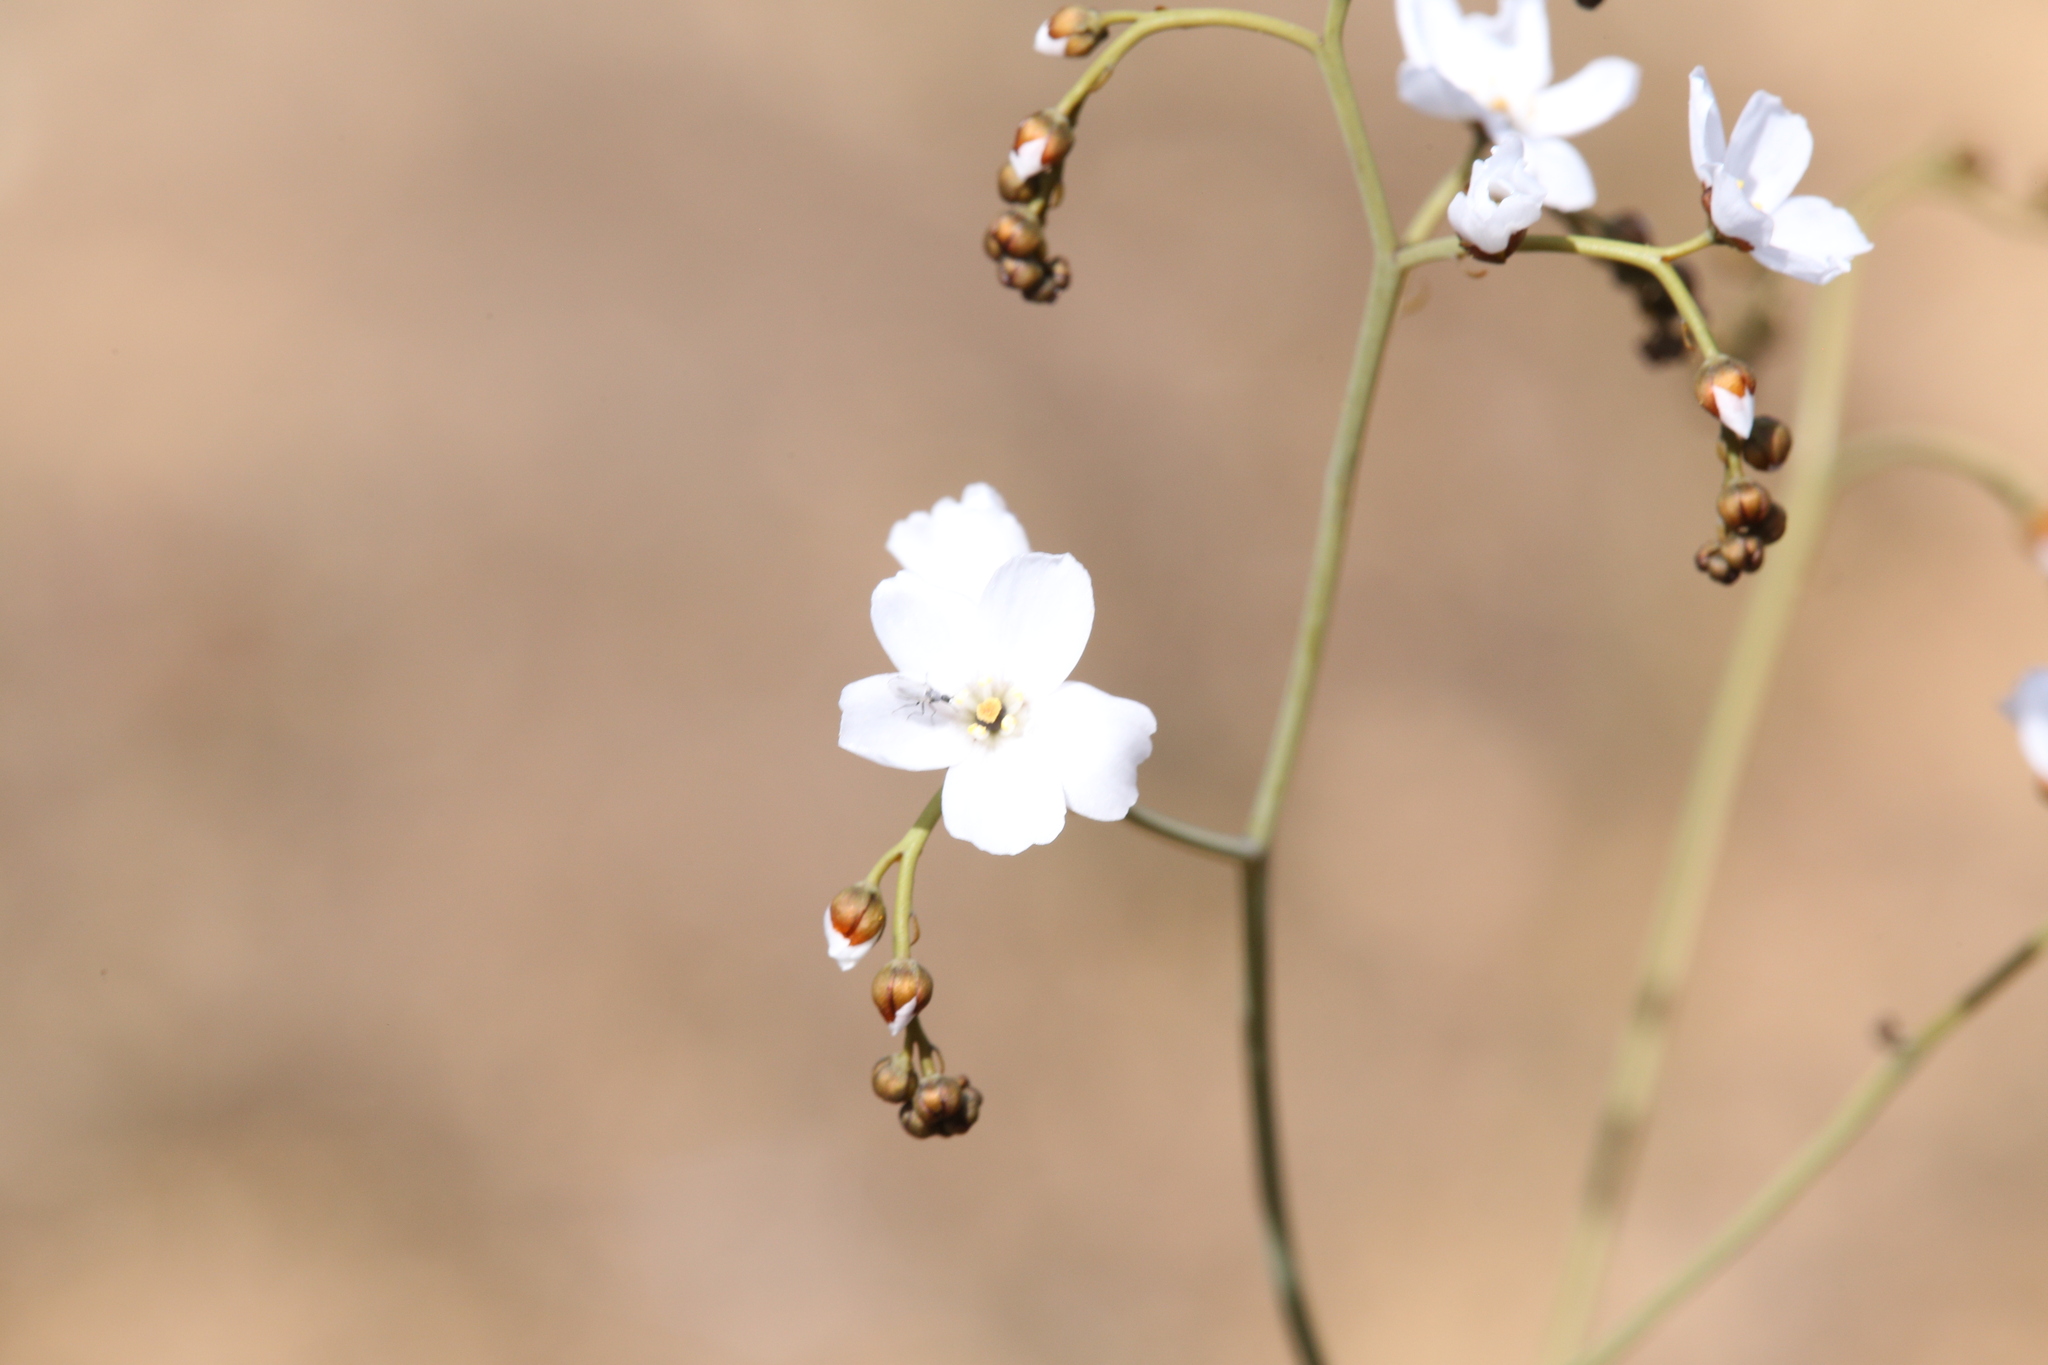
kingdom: Plantae
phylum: Tracheophyta
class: Magnoliopsida
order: Caryophyllales
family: Droseraceae
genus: Drosera
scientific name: Drosera gigantea
